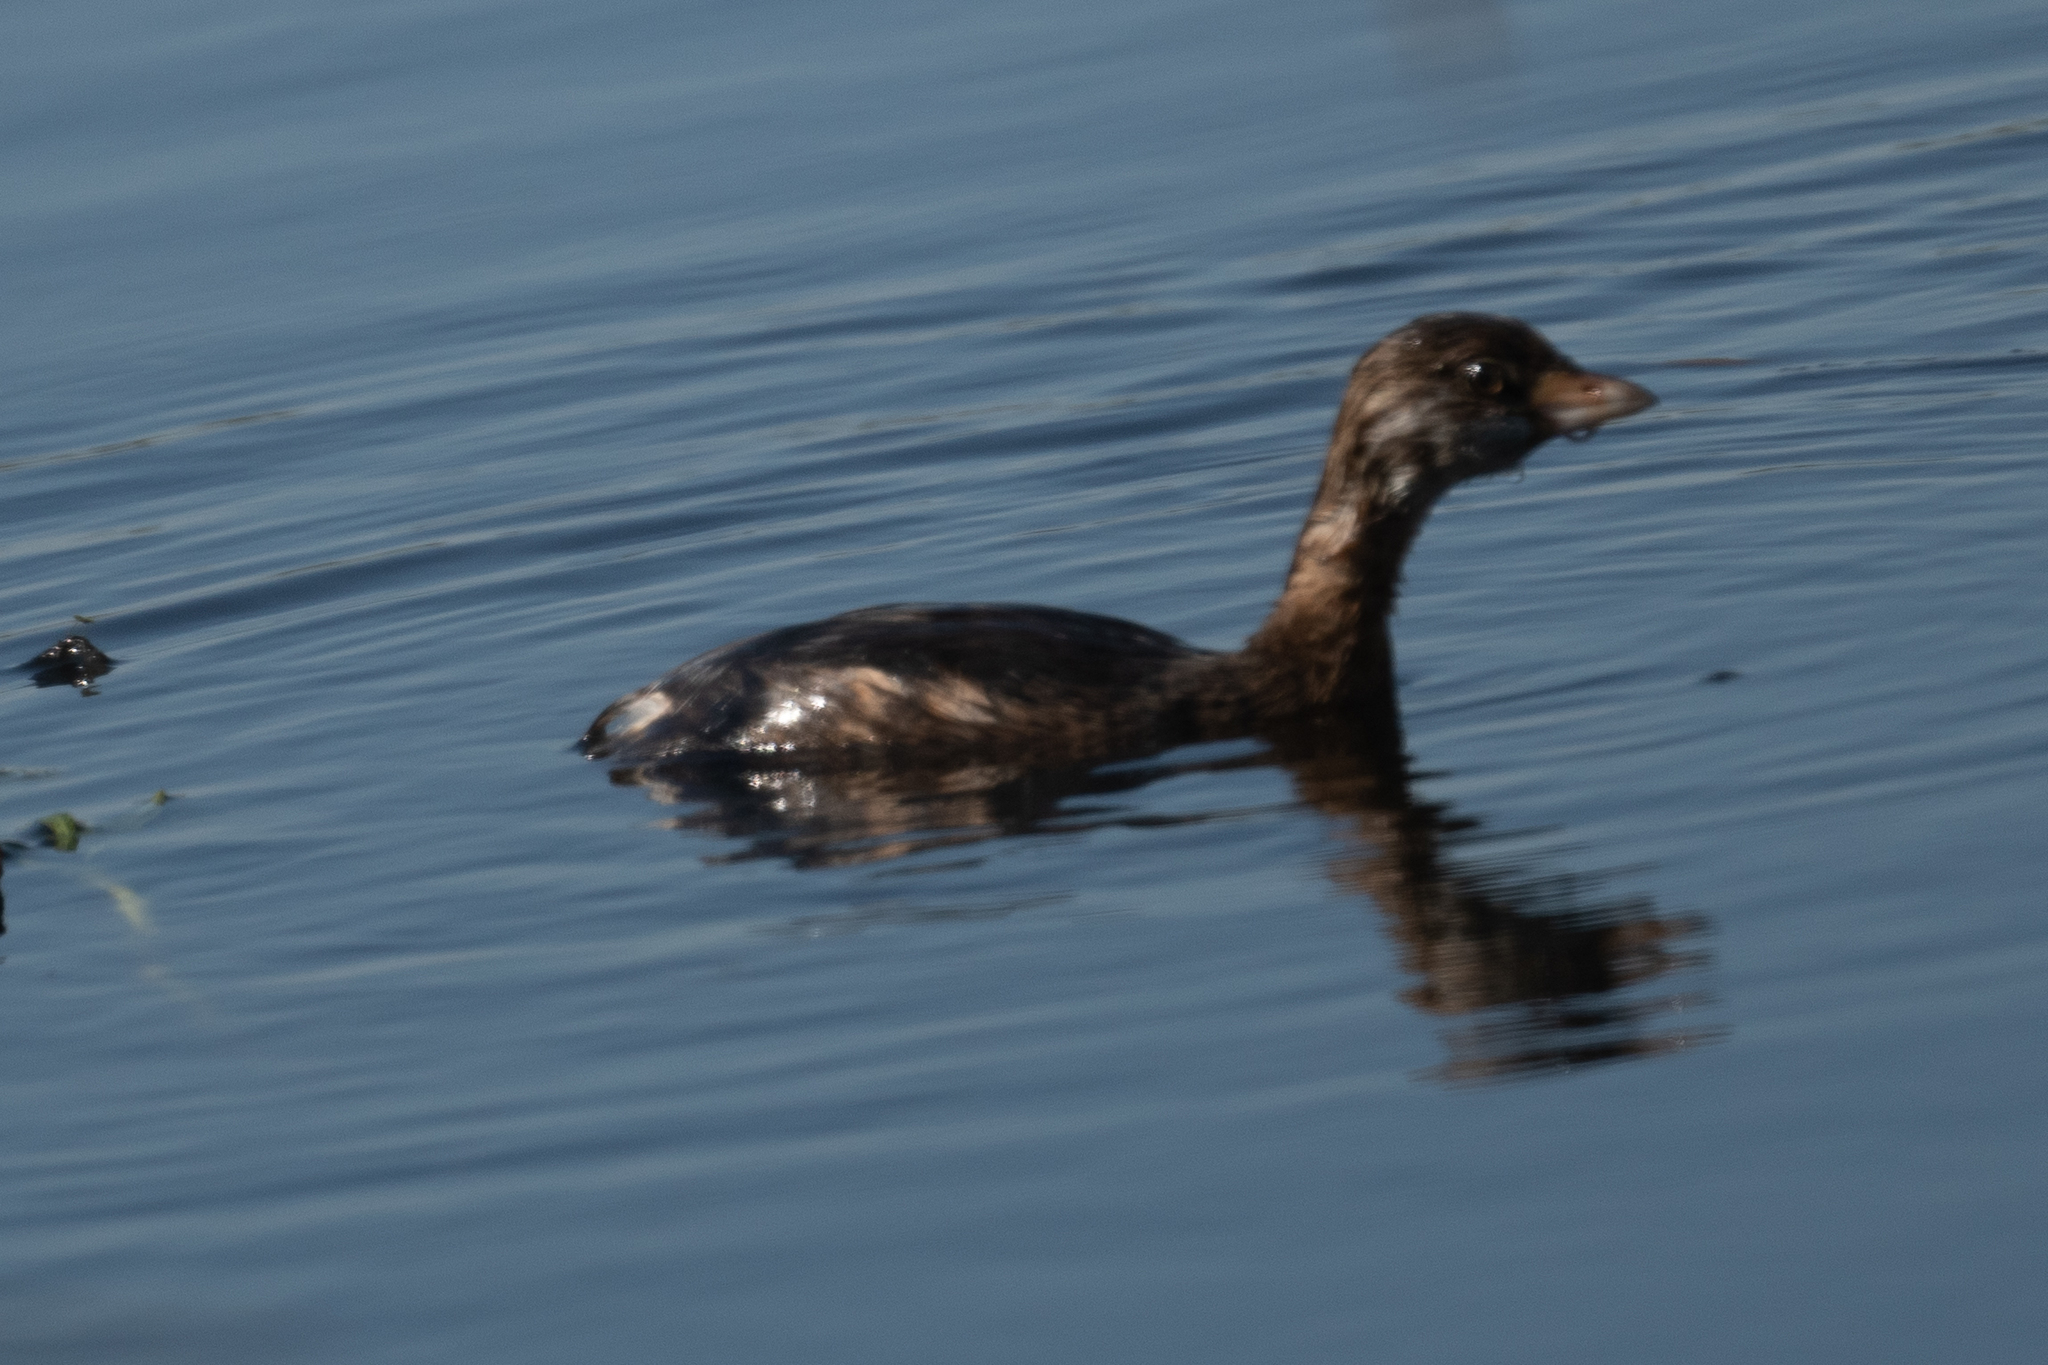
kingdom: Animalia
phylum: Chordata
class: Aves
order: Podicipediformes
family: Podicipedidae
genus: Podilymbus
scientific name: Podilymbus podiceps
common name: Pied-billed grebe
